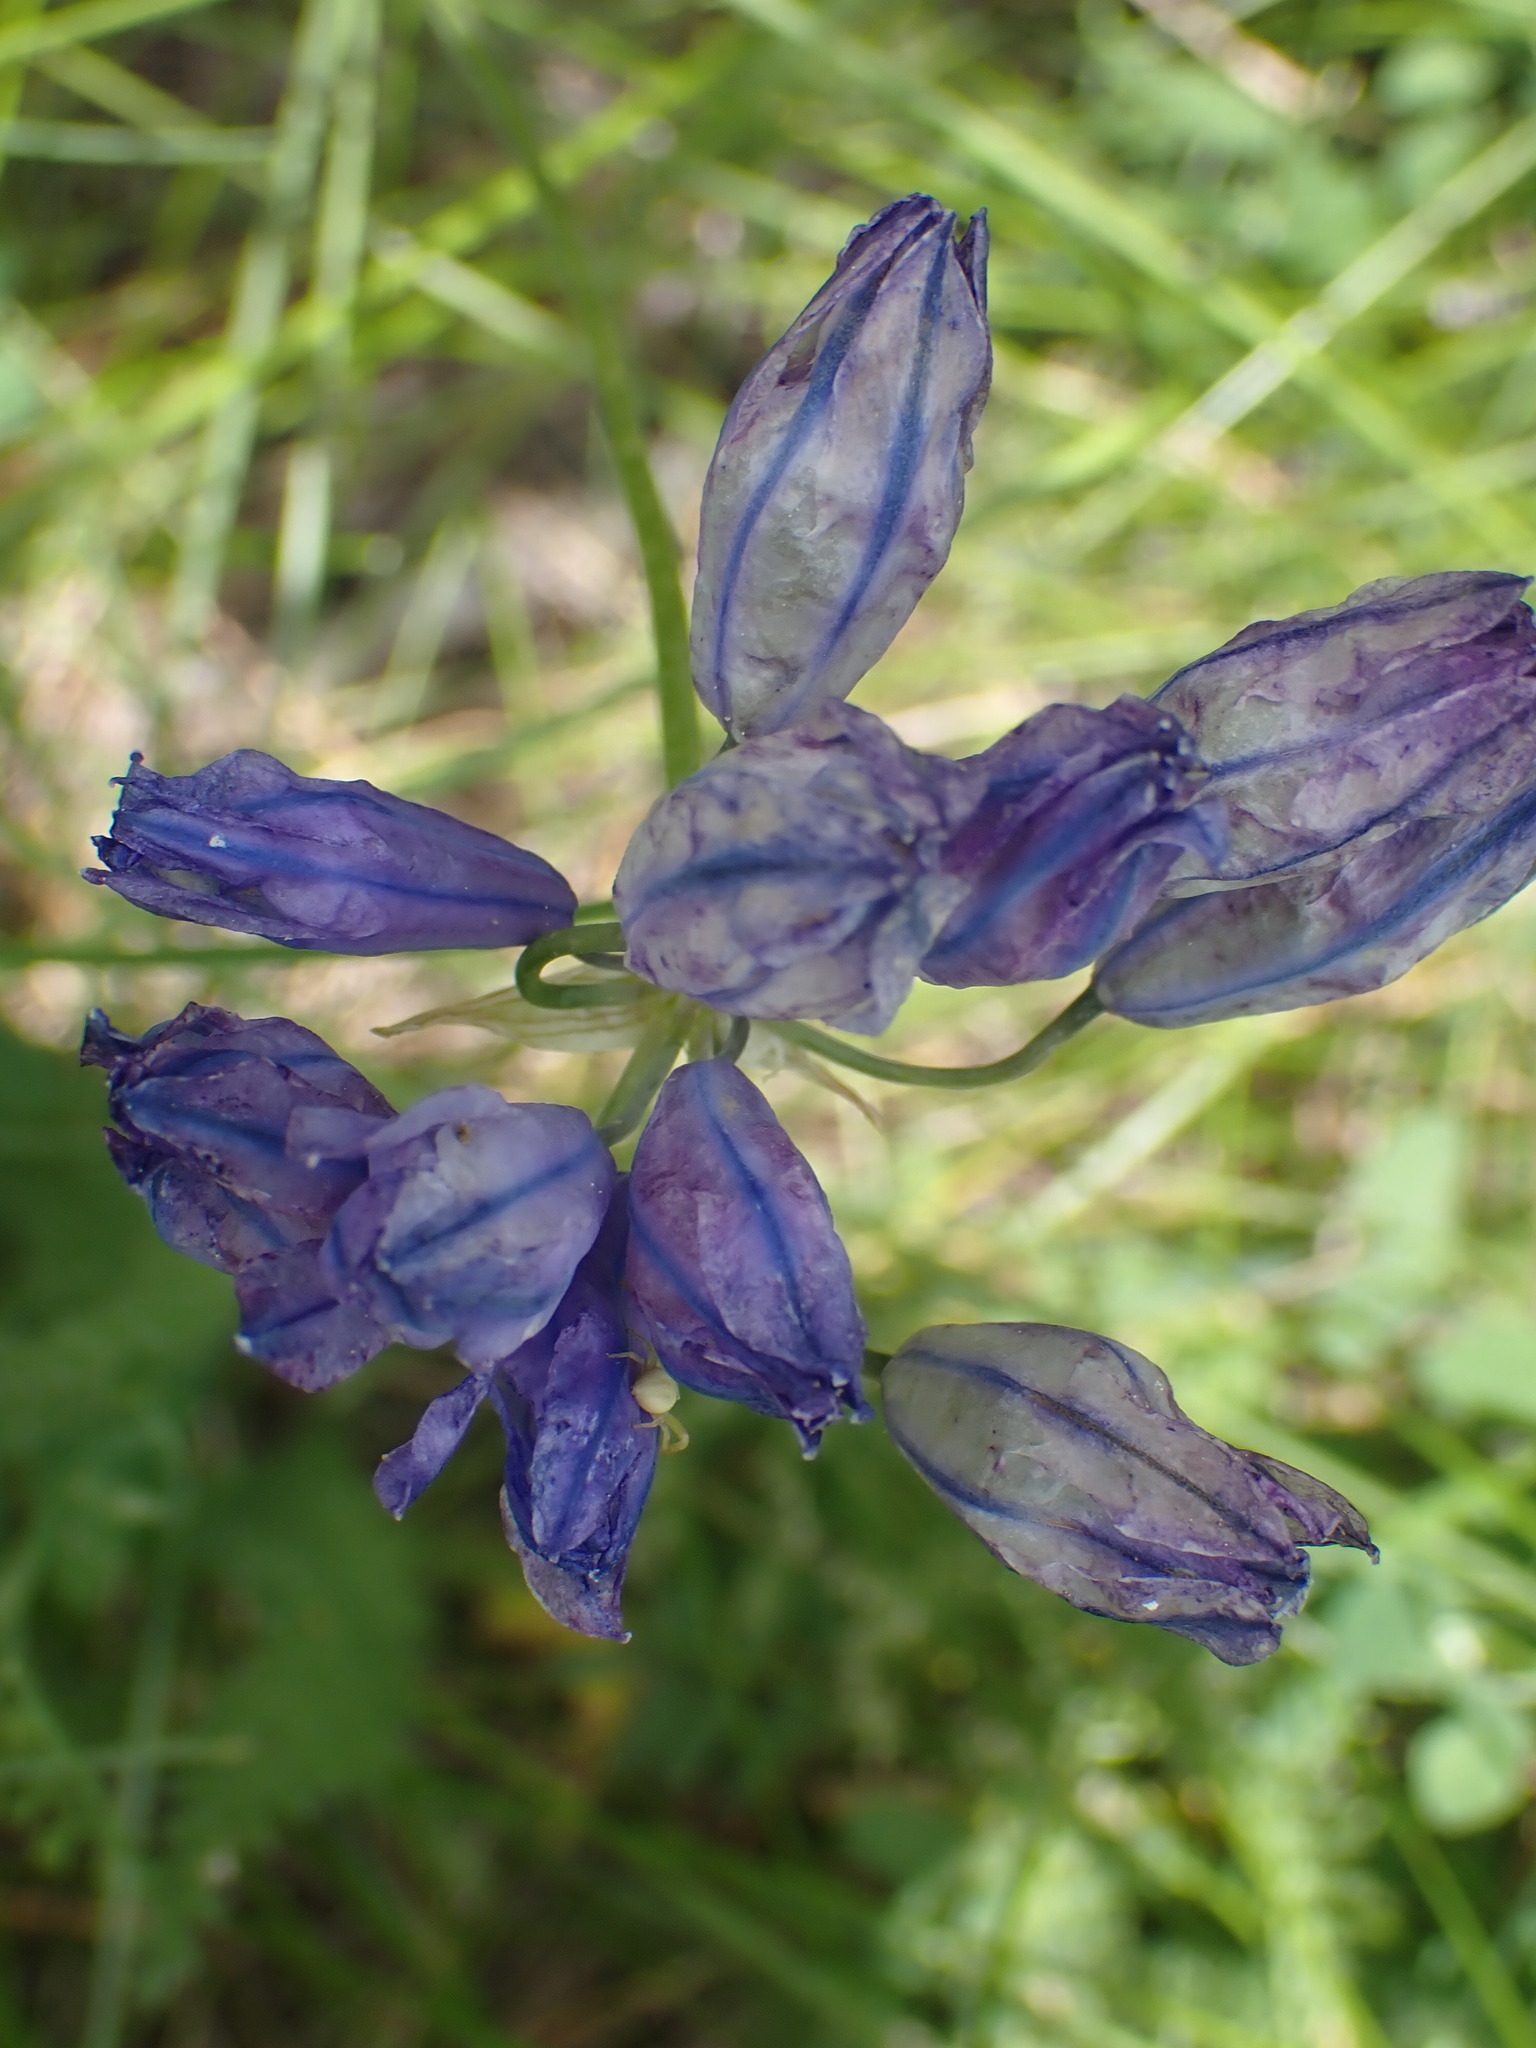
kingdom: Plantae
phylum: Tracheophyta
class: Liliopsida
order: Asparagales
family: Asparagaceae
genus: Triteleia
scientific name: Triteleia grandiflora
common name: Wild hyacinth
